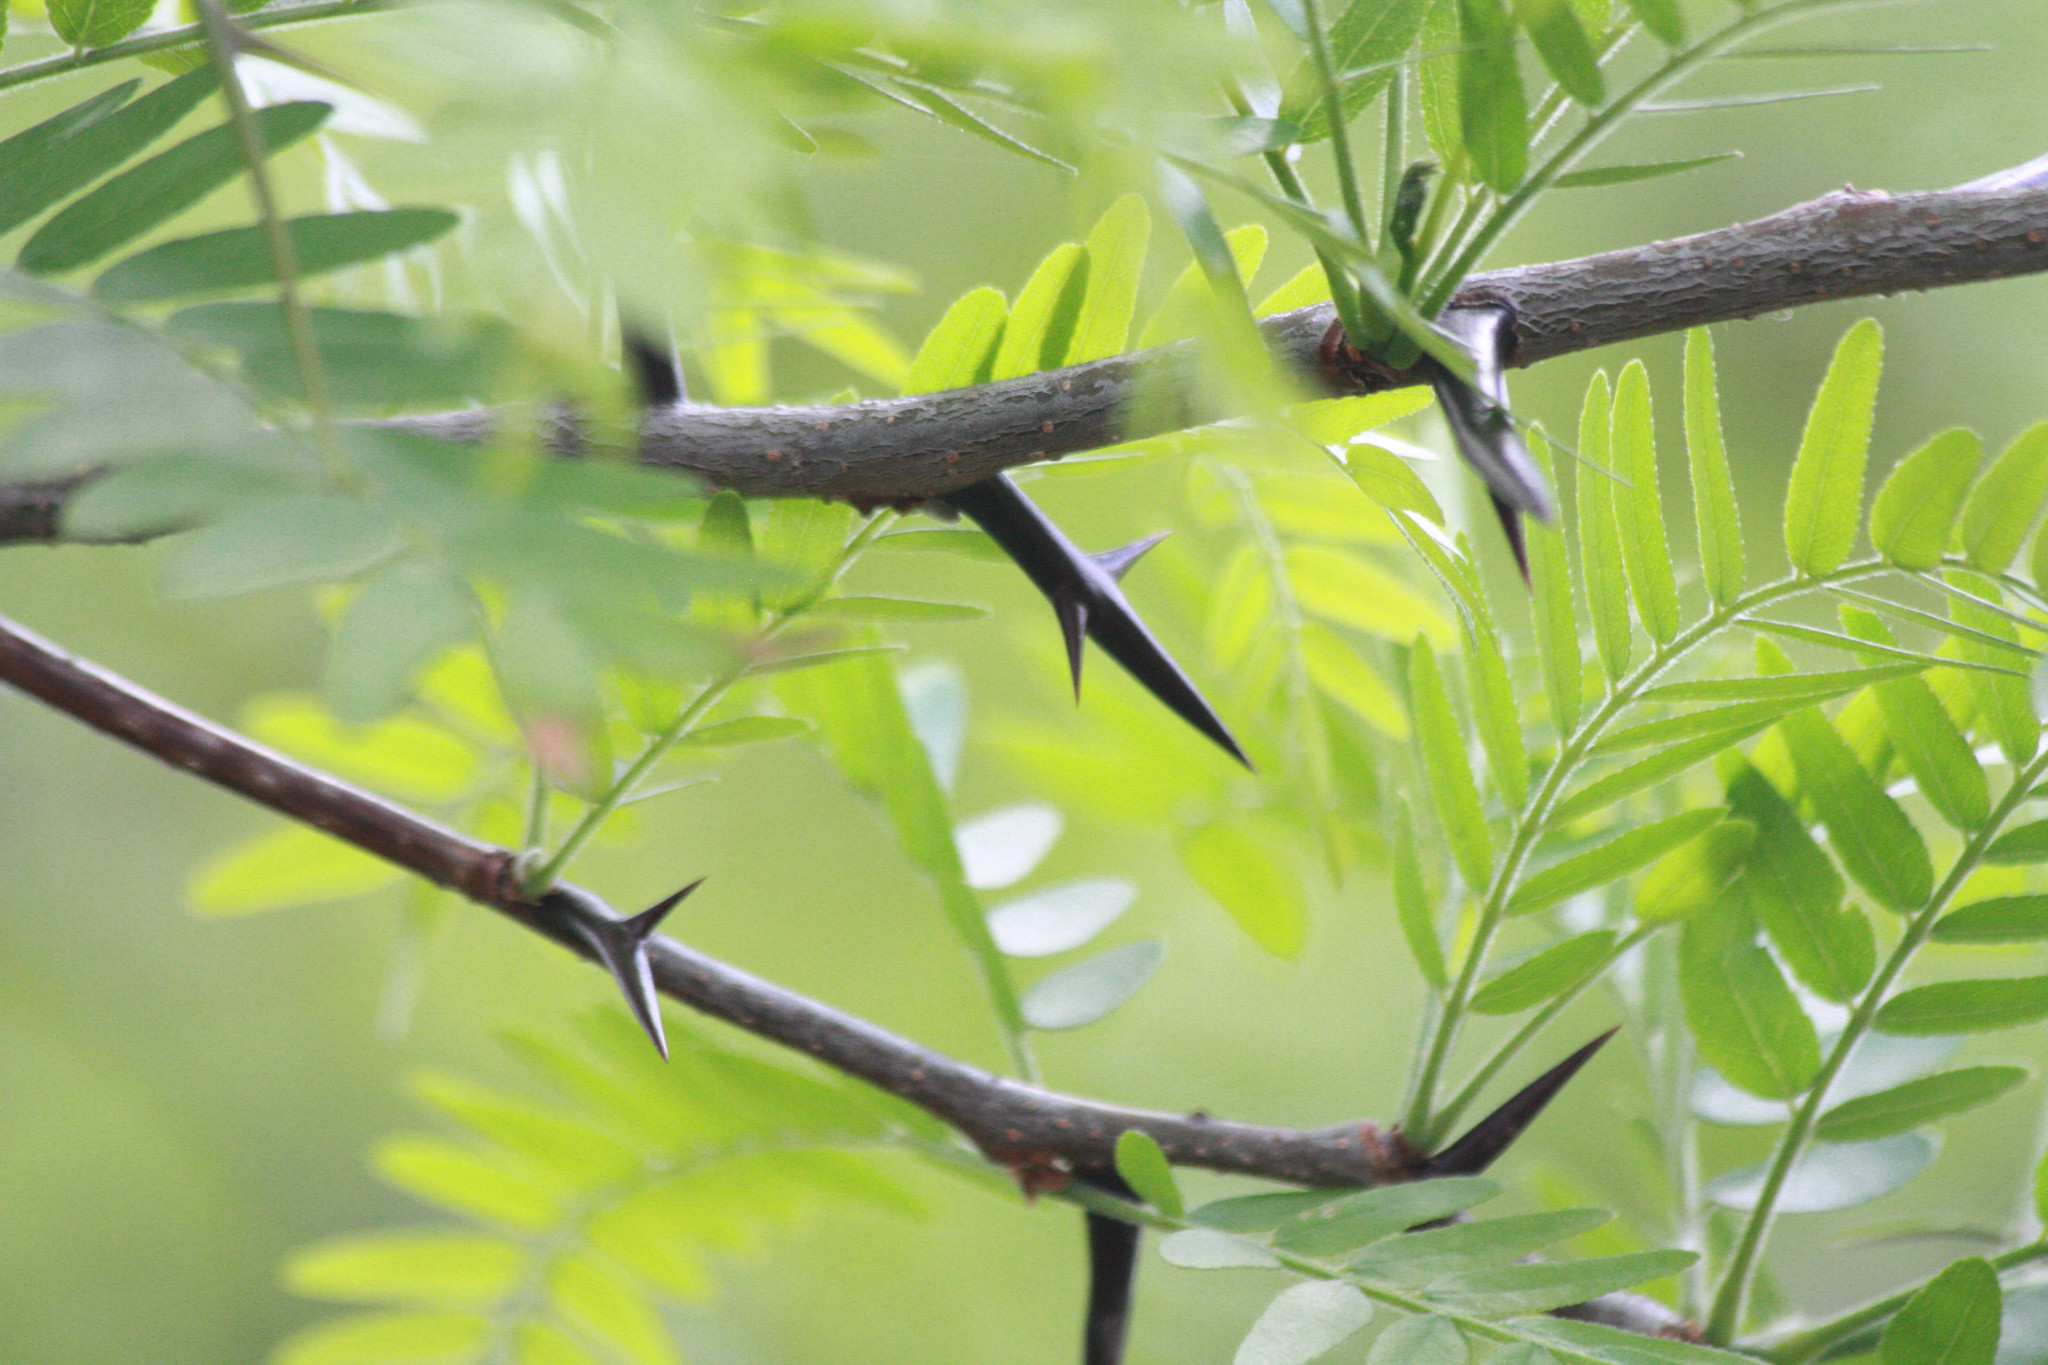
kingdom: Plantae
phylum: Tracheophyta
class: Magnoliopsida
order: Fabales
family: Fabaceae
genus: Gleditsia
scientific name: Gleditsia triacanthos
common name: Common honeylocust
